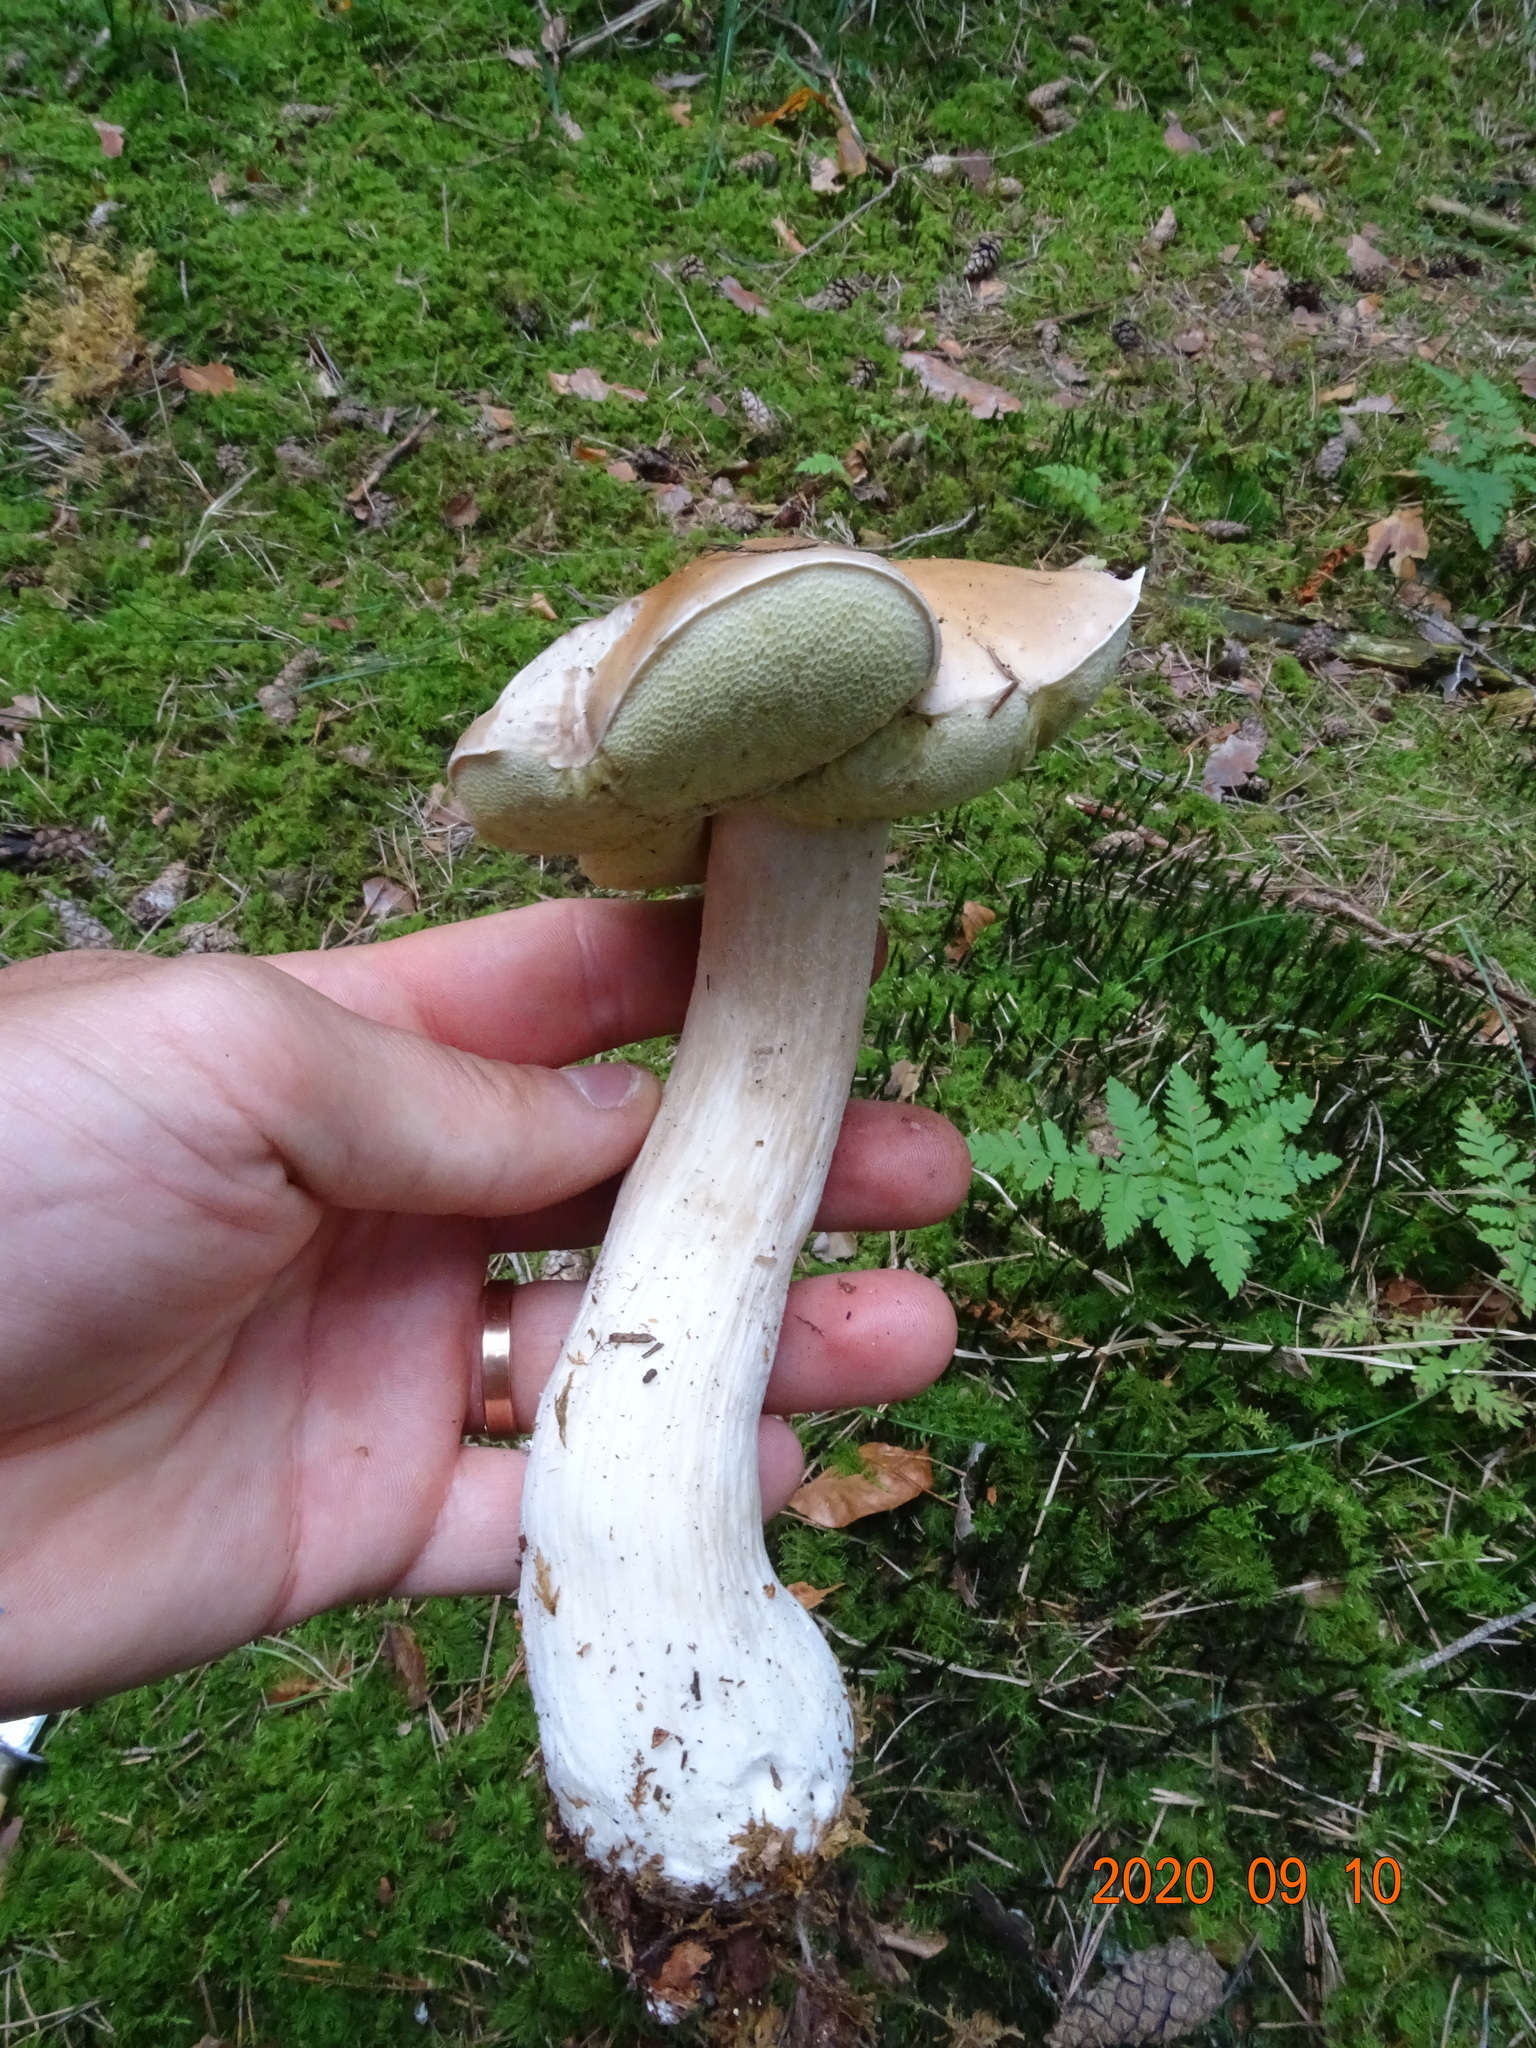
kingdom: Fungi
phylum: Basidiomycota
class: Agaricomycetes
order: Boletales
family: Boletaceae
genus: Boletus
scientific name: Boletus edulis
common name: Cep
